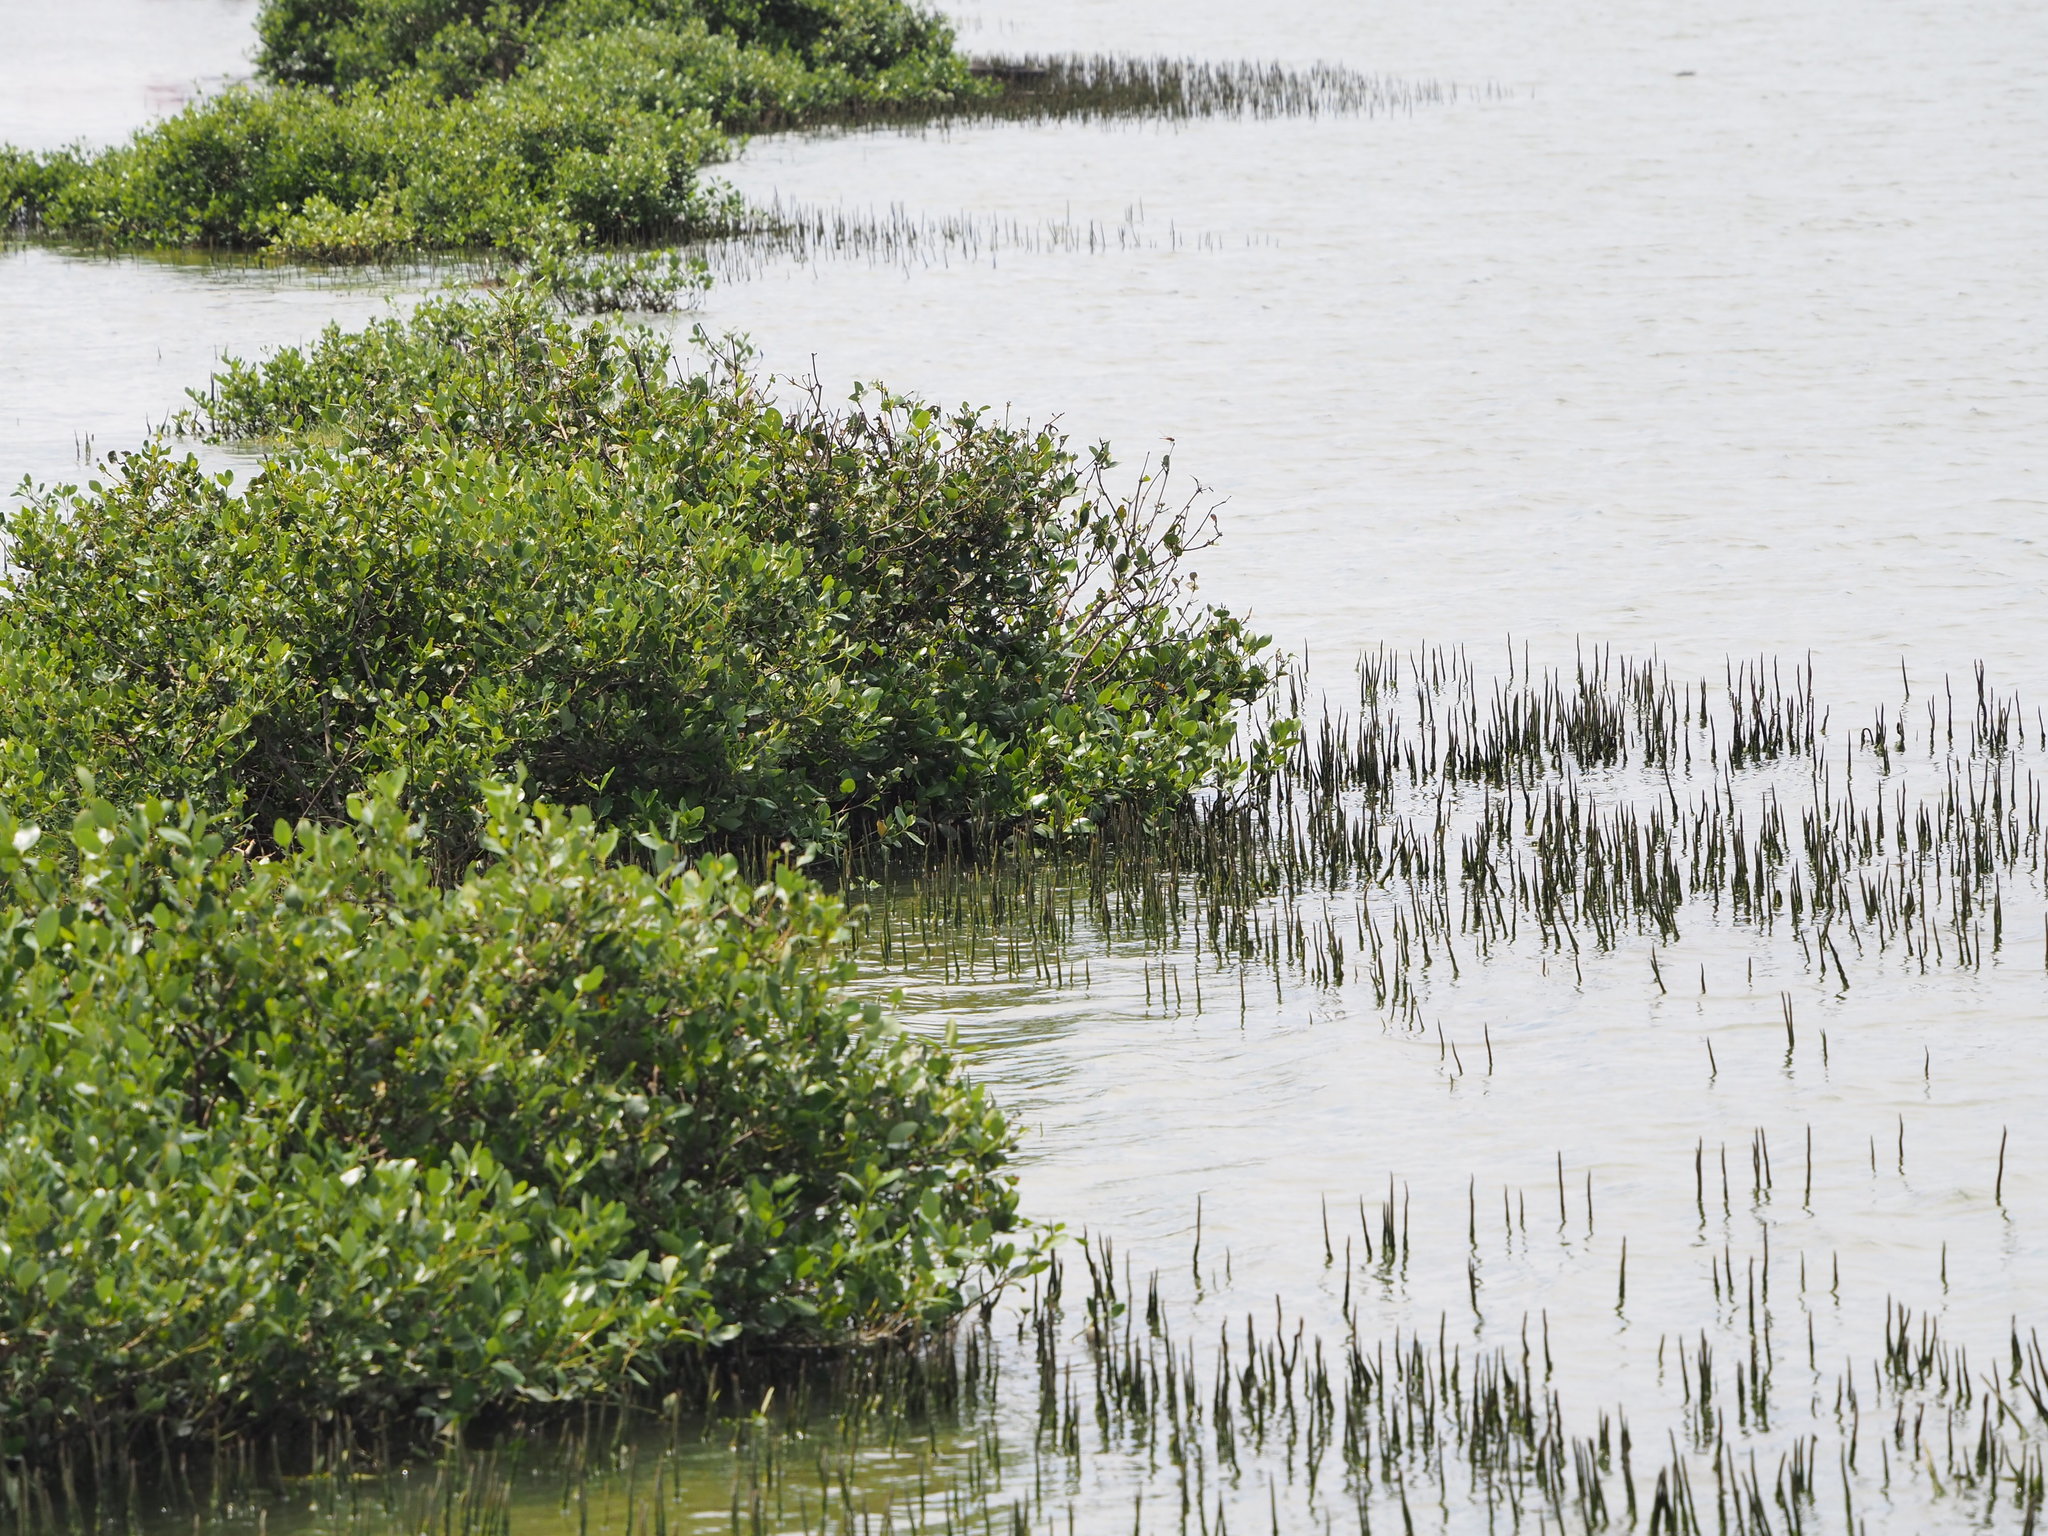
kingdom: Plantae
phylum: Tracheophyta
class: Magnoliopsida
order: Lamiales
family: Acanthaceae
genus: Avicennia
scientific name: Avicennia marina
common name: Gray mangrove
